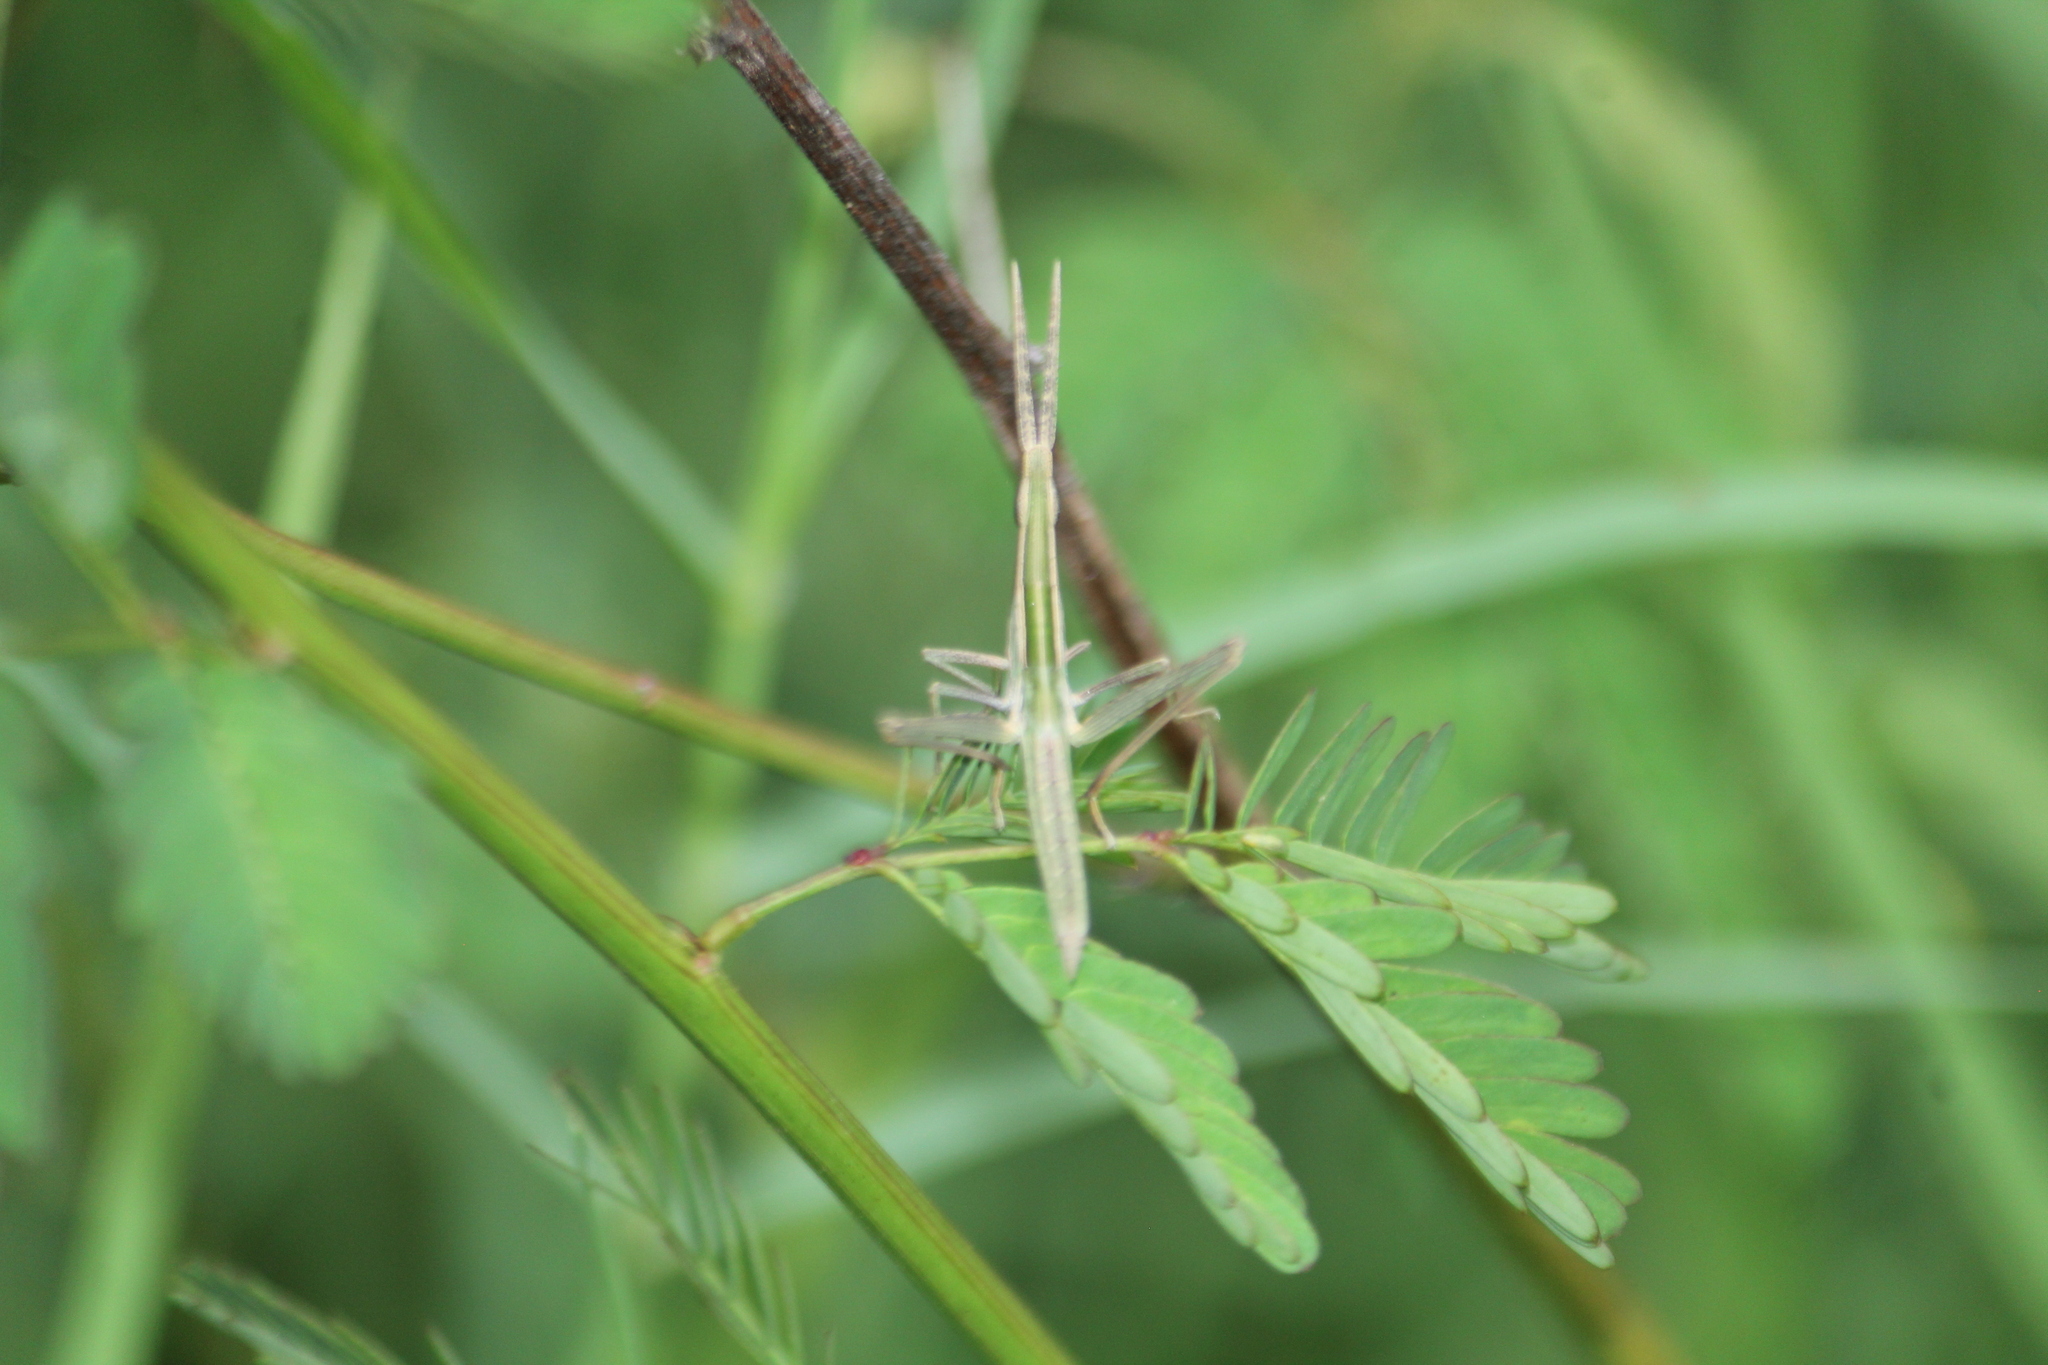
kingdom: Animalia
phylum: Arthropoda
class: Insecta
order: Orthoptera
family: Acrididae
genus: Acrida
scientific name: Acrida cinerea
